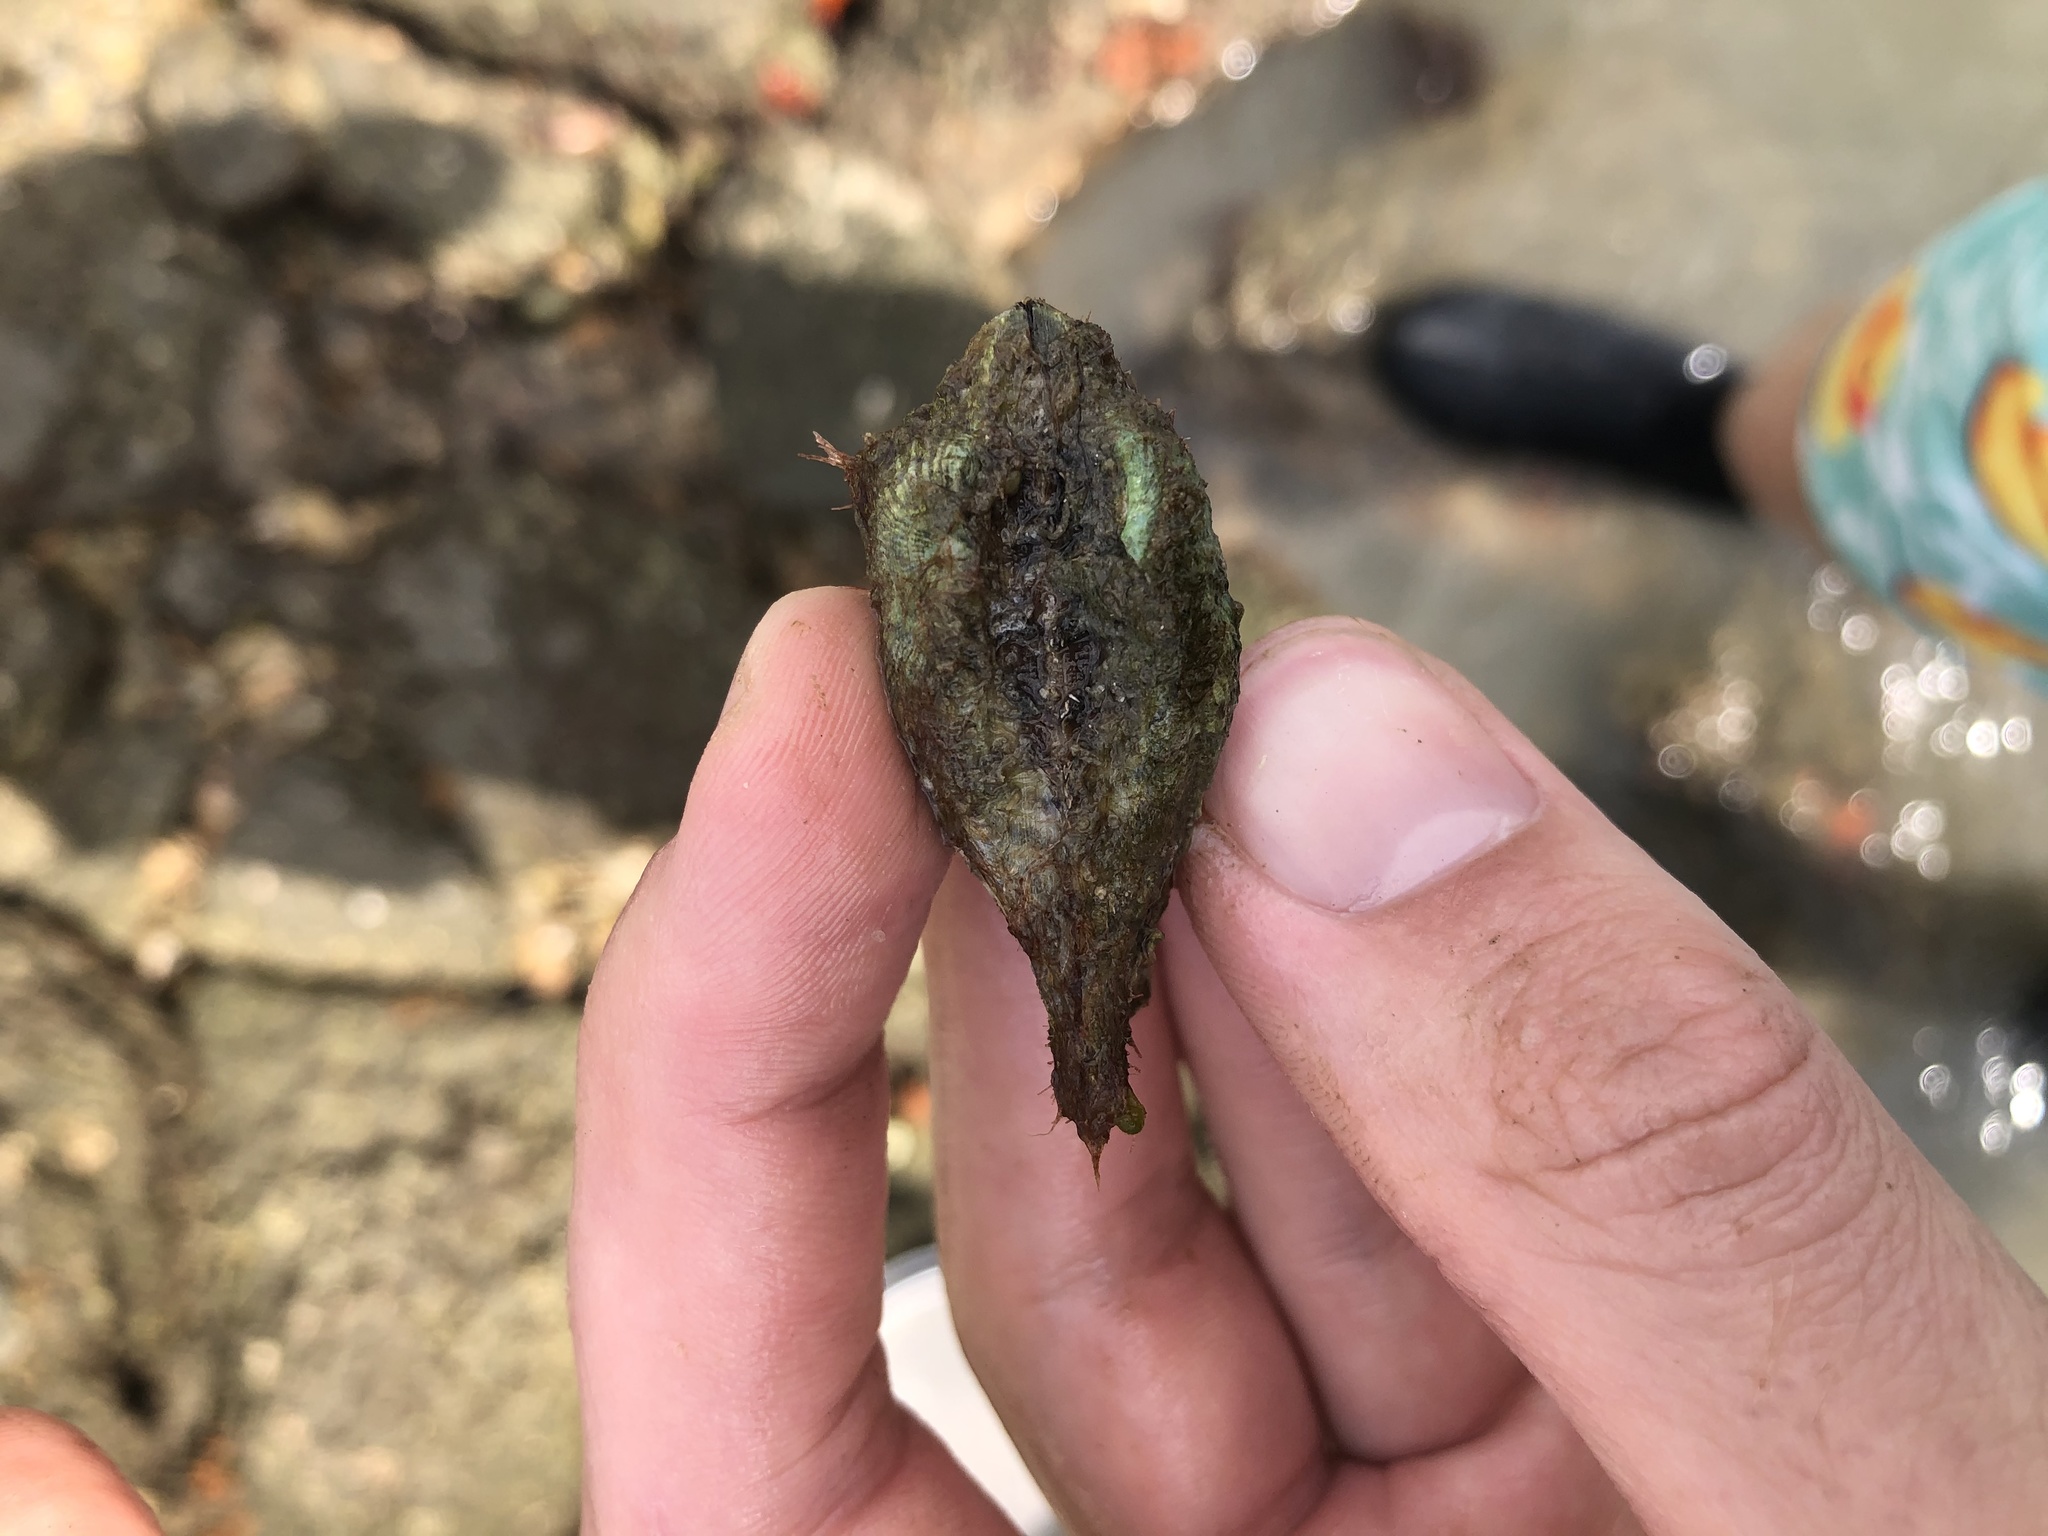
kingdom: Animalia
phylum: Mollusca
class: Bivalvia
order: Arcida
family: Arcidae
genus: Arca
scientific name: Arca zebra
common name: Atlantic turkey wing
